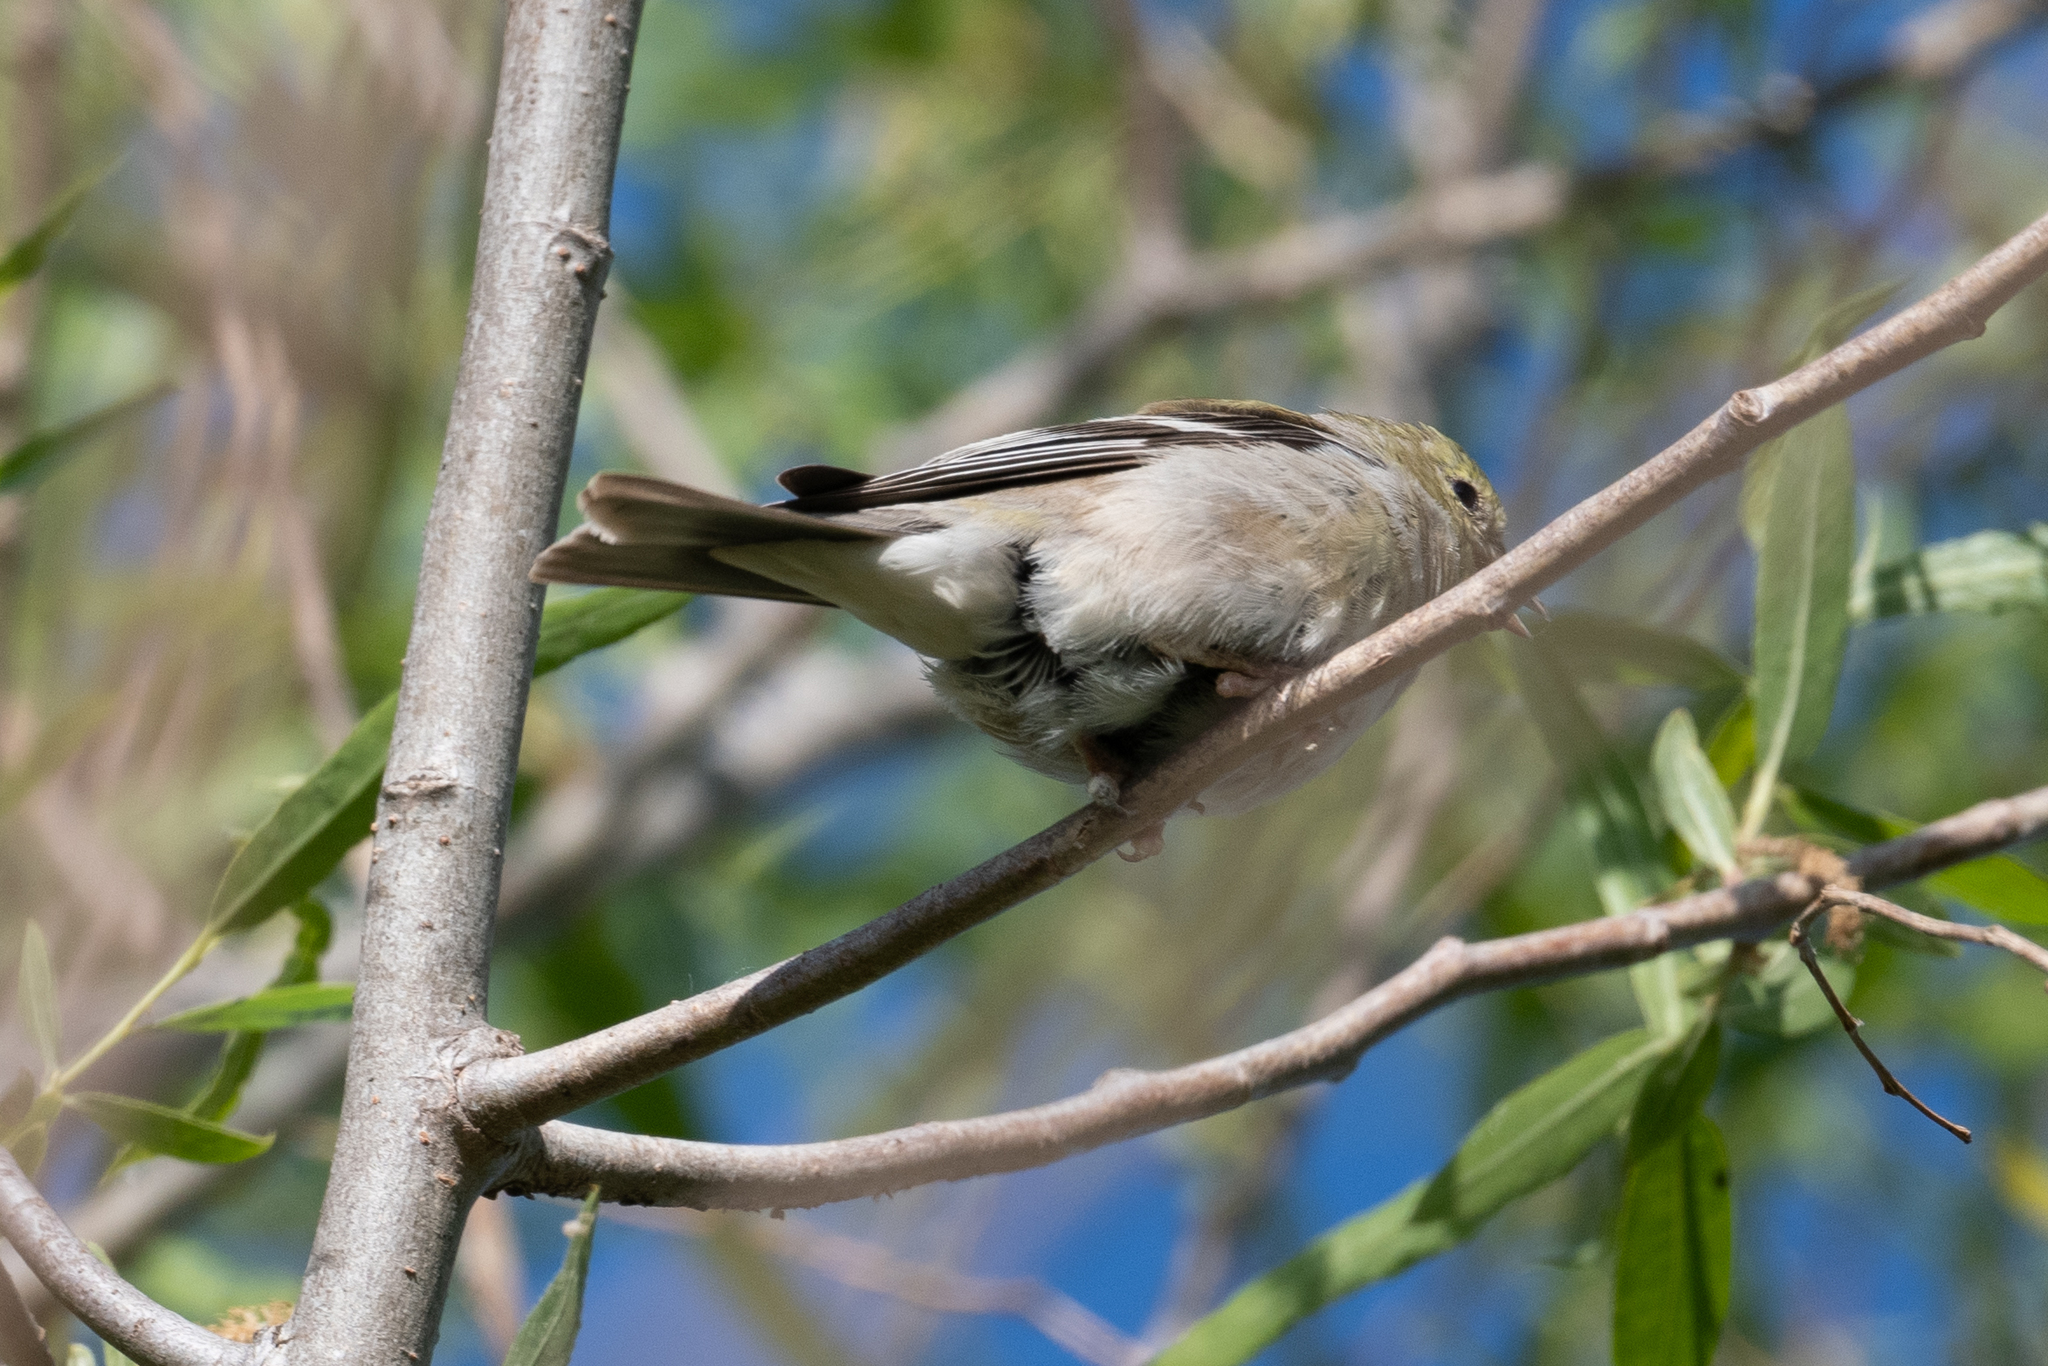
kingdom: Animalia
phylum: Chordata
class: Aves
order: Passeriformes
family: Fringillidae
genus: Spinus
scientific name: Spinus tristis
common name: American goldfinch
